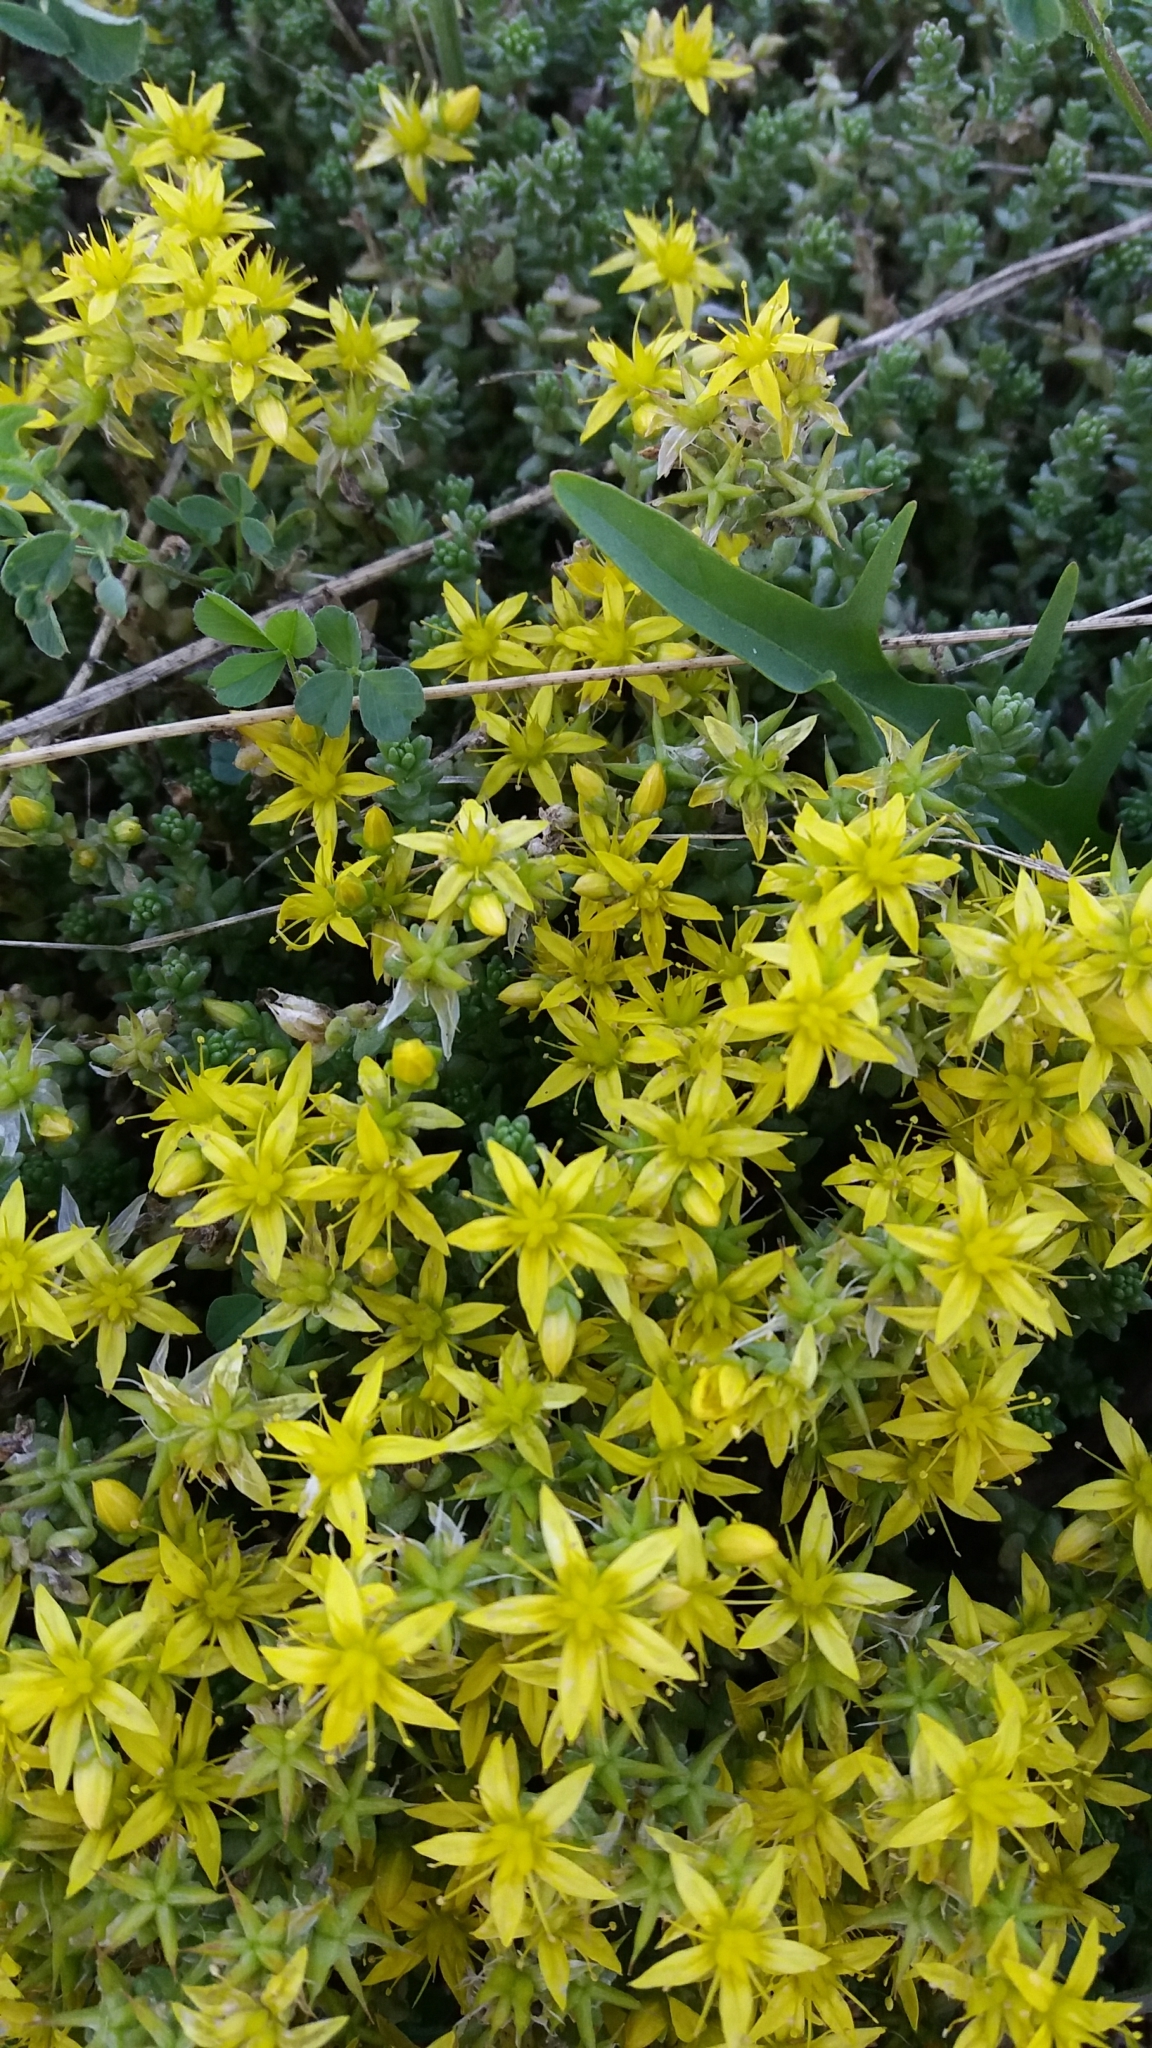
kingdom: Plantae
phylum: Tracheophyta
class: Magnoliopsida
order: Saxifragales
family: Crassulaceae
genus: Sedum
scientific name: Sedum acre
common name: Biting stonecrop
